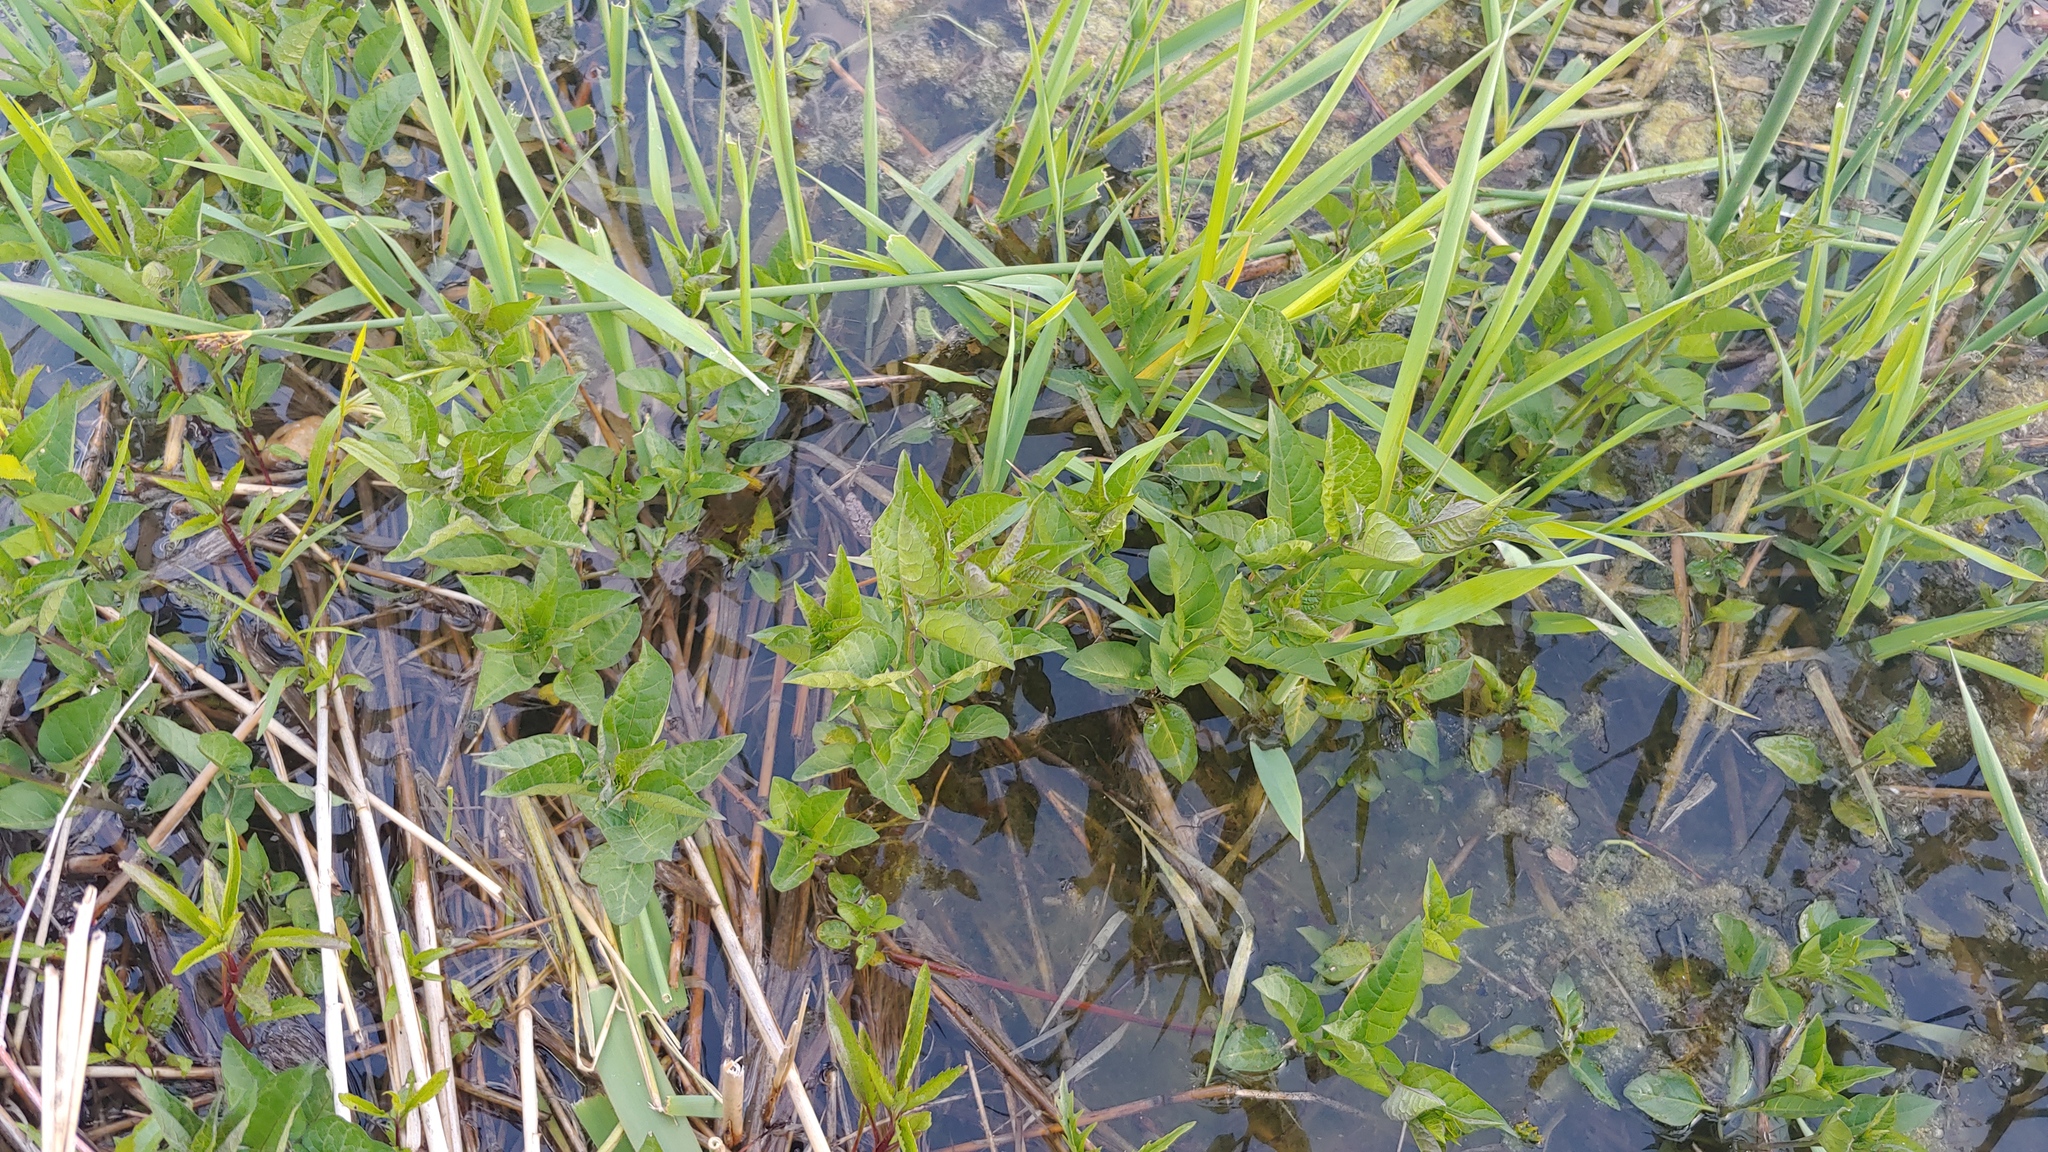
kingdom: Plantae
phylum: Tracheophyta
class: Magnoliopsida
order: Solanales
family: Solanaceae
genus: Solanum
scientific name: Solanum dulcamara
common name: Climbing nightshade
